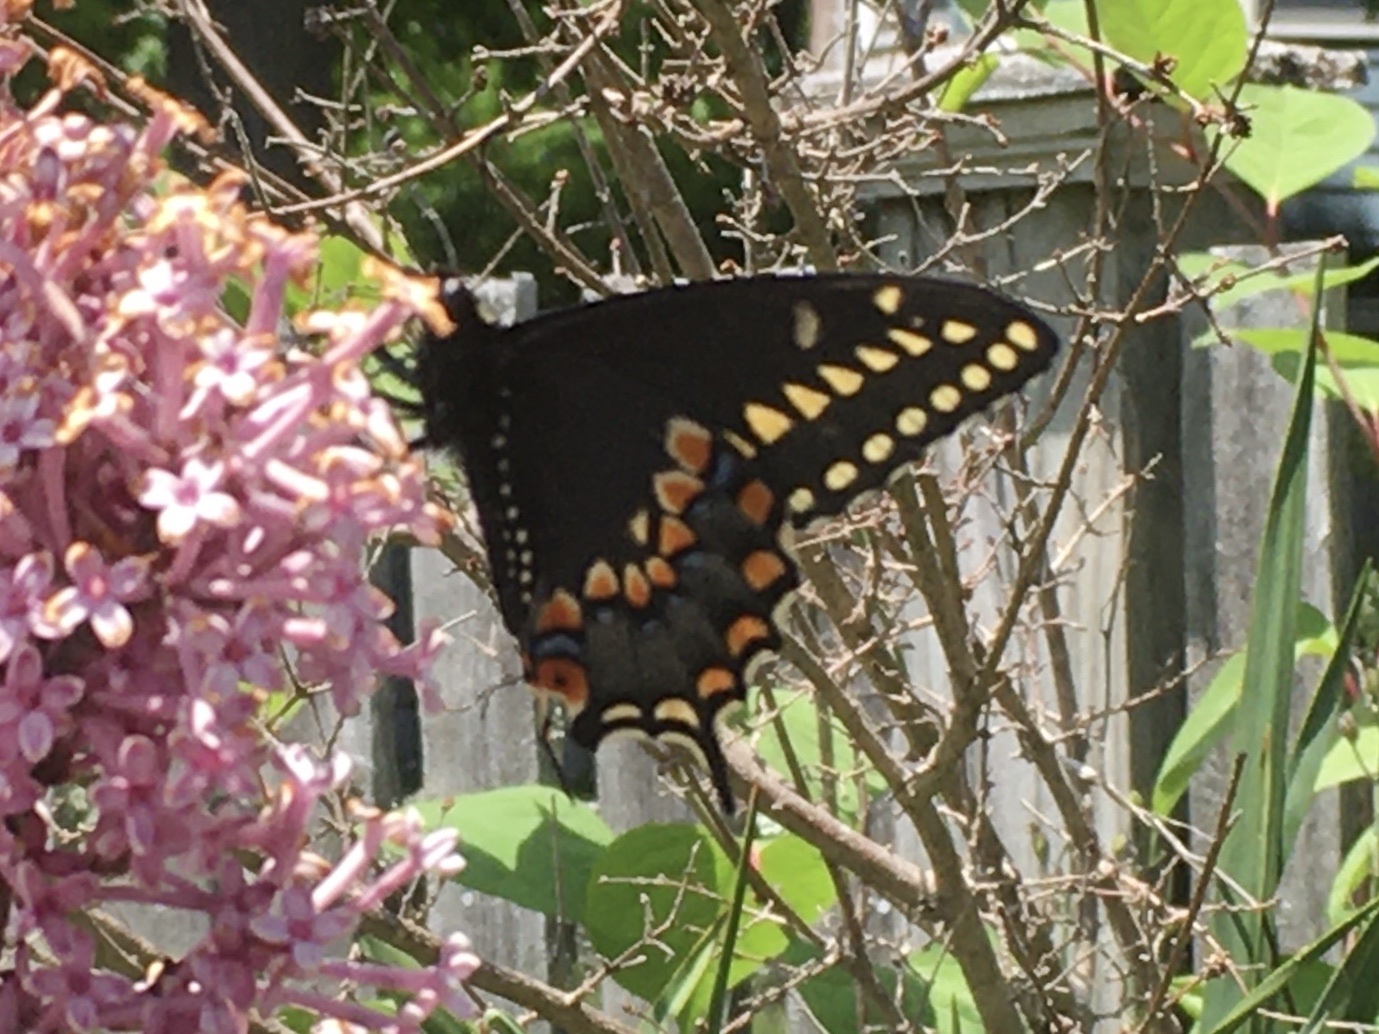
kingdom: Animalia
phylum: Arthropoda
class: Insecta
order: Lepidoptera
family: Papilionidae
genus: Papilio
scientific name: Papilio polyxenes
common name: Black swallowtail
